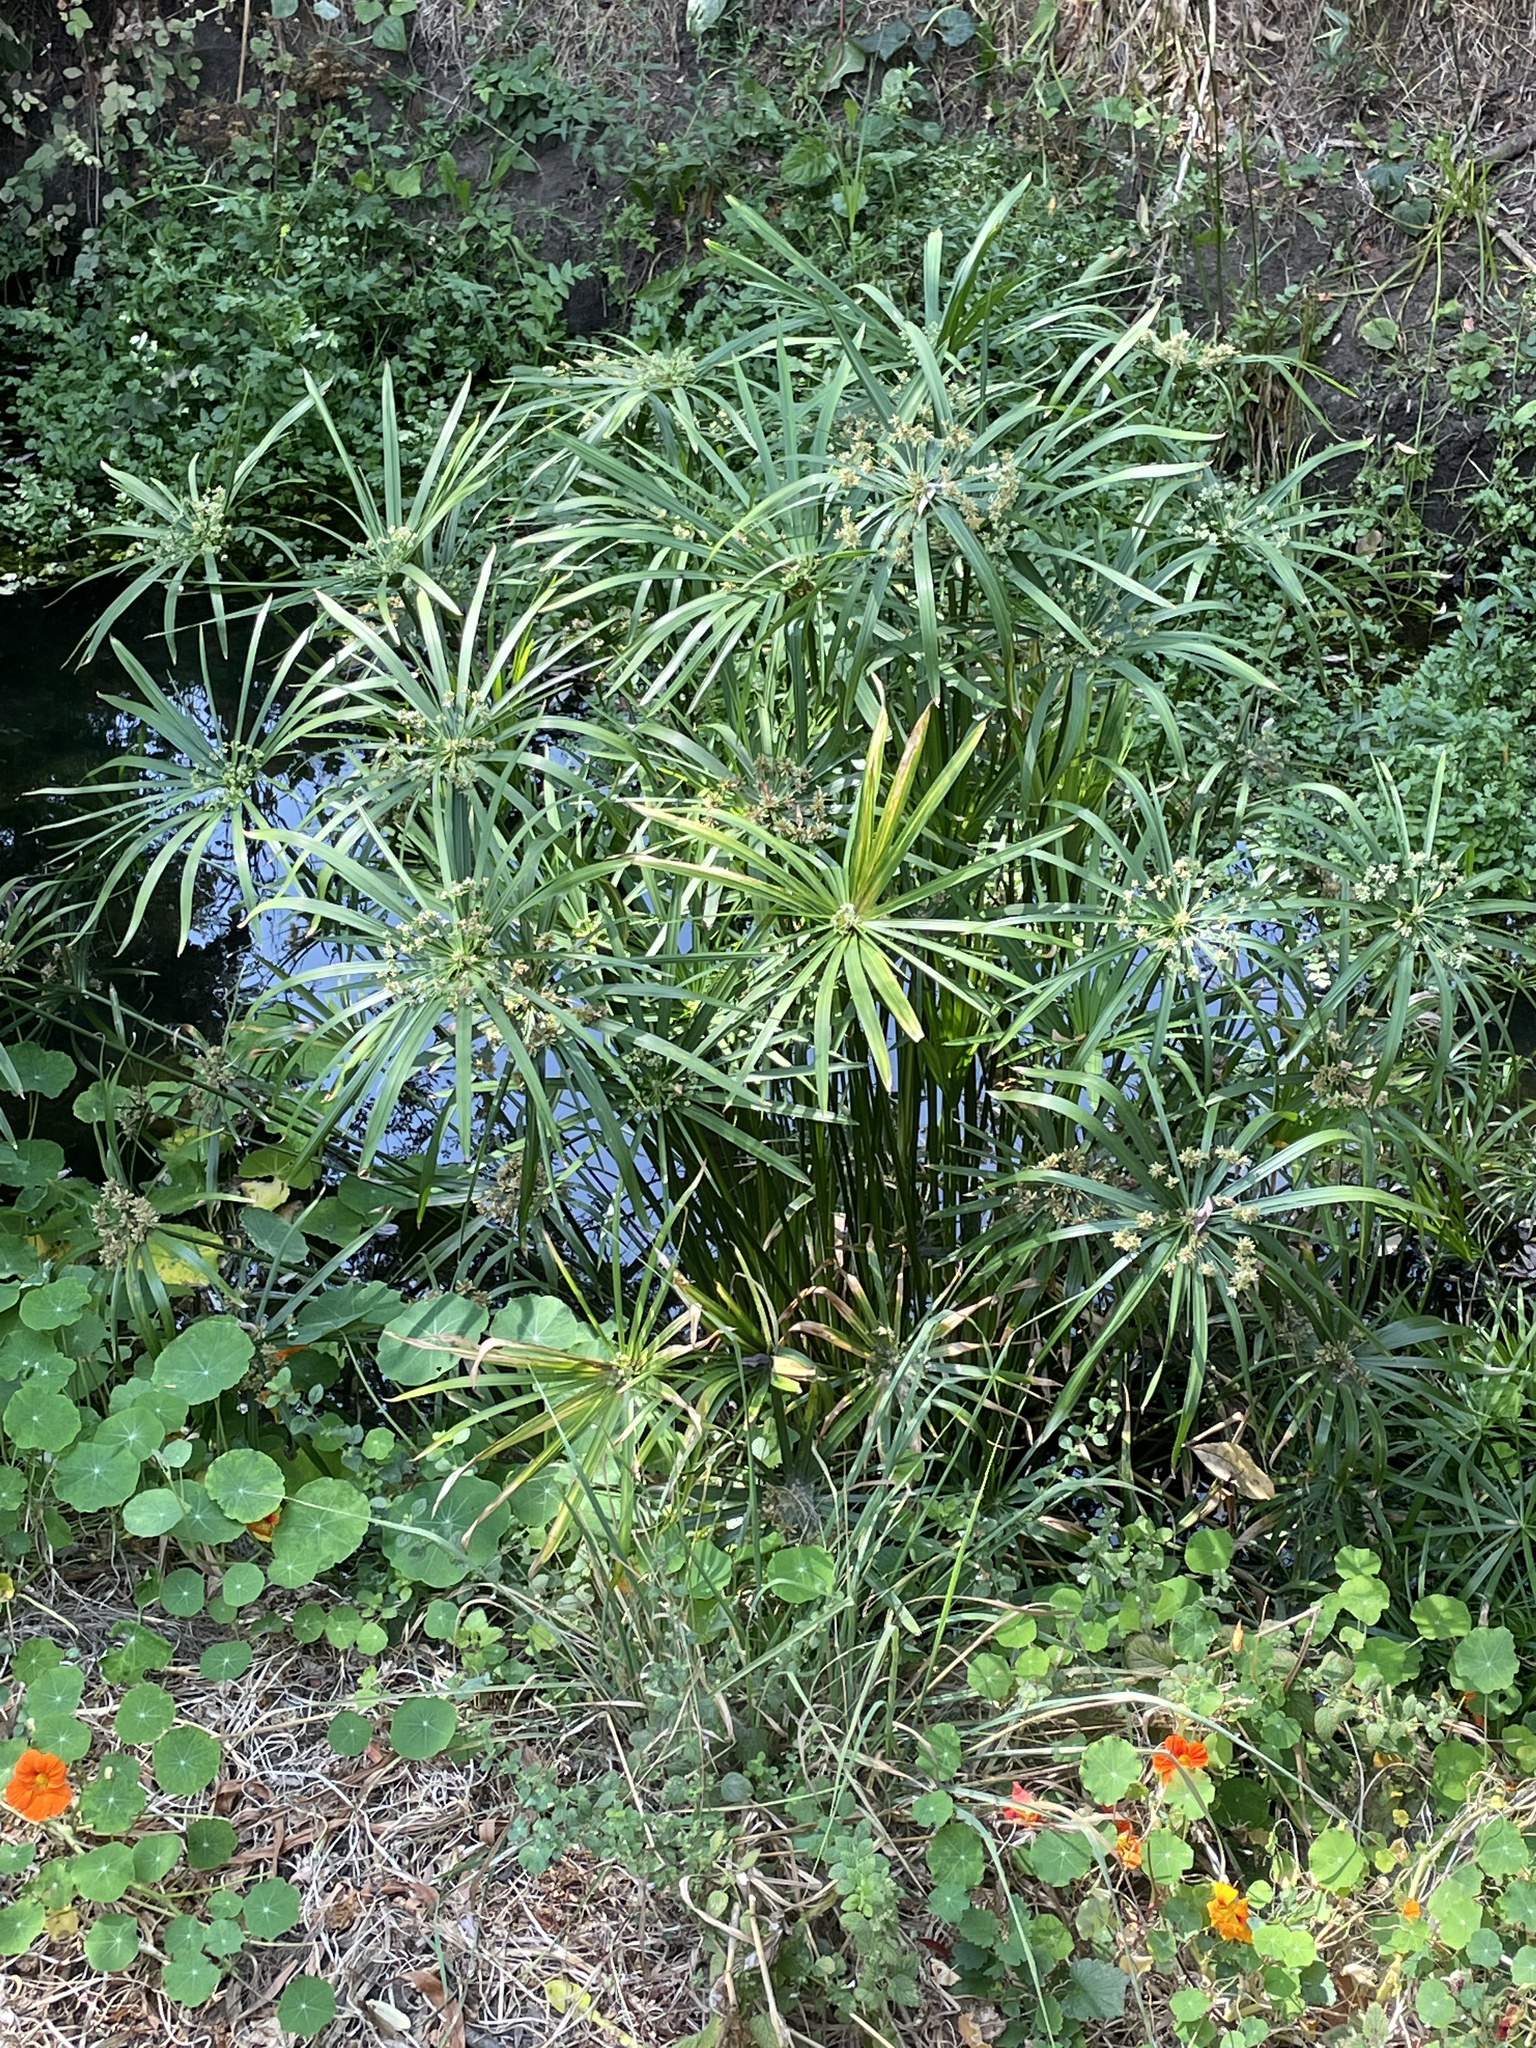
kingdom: Plantae
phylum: Tracheophyta
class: Liliopsida
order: Poales
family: Cyperaceae
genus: Cyperus
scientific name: Cyperus alternifolius
